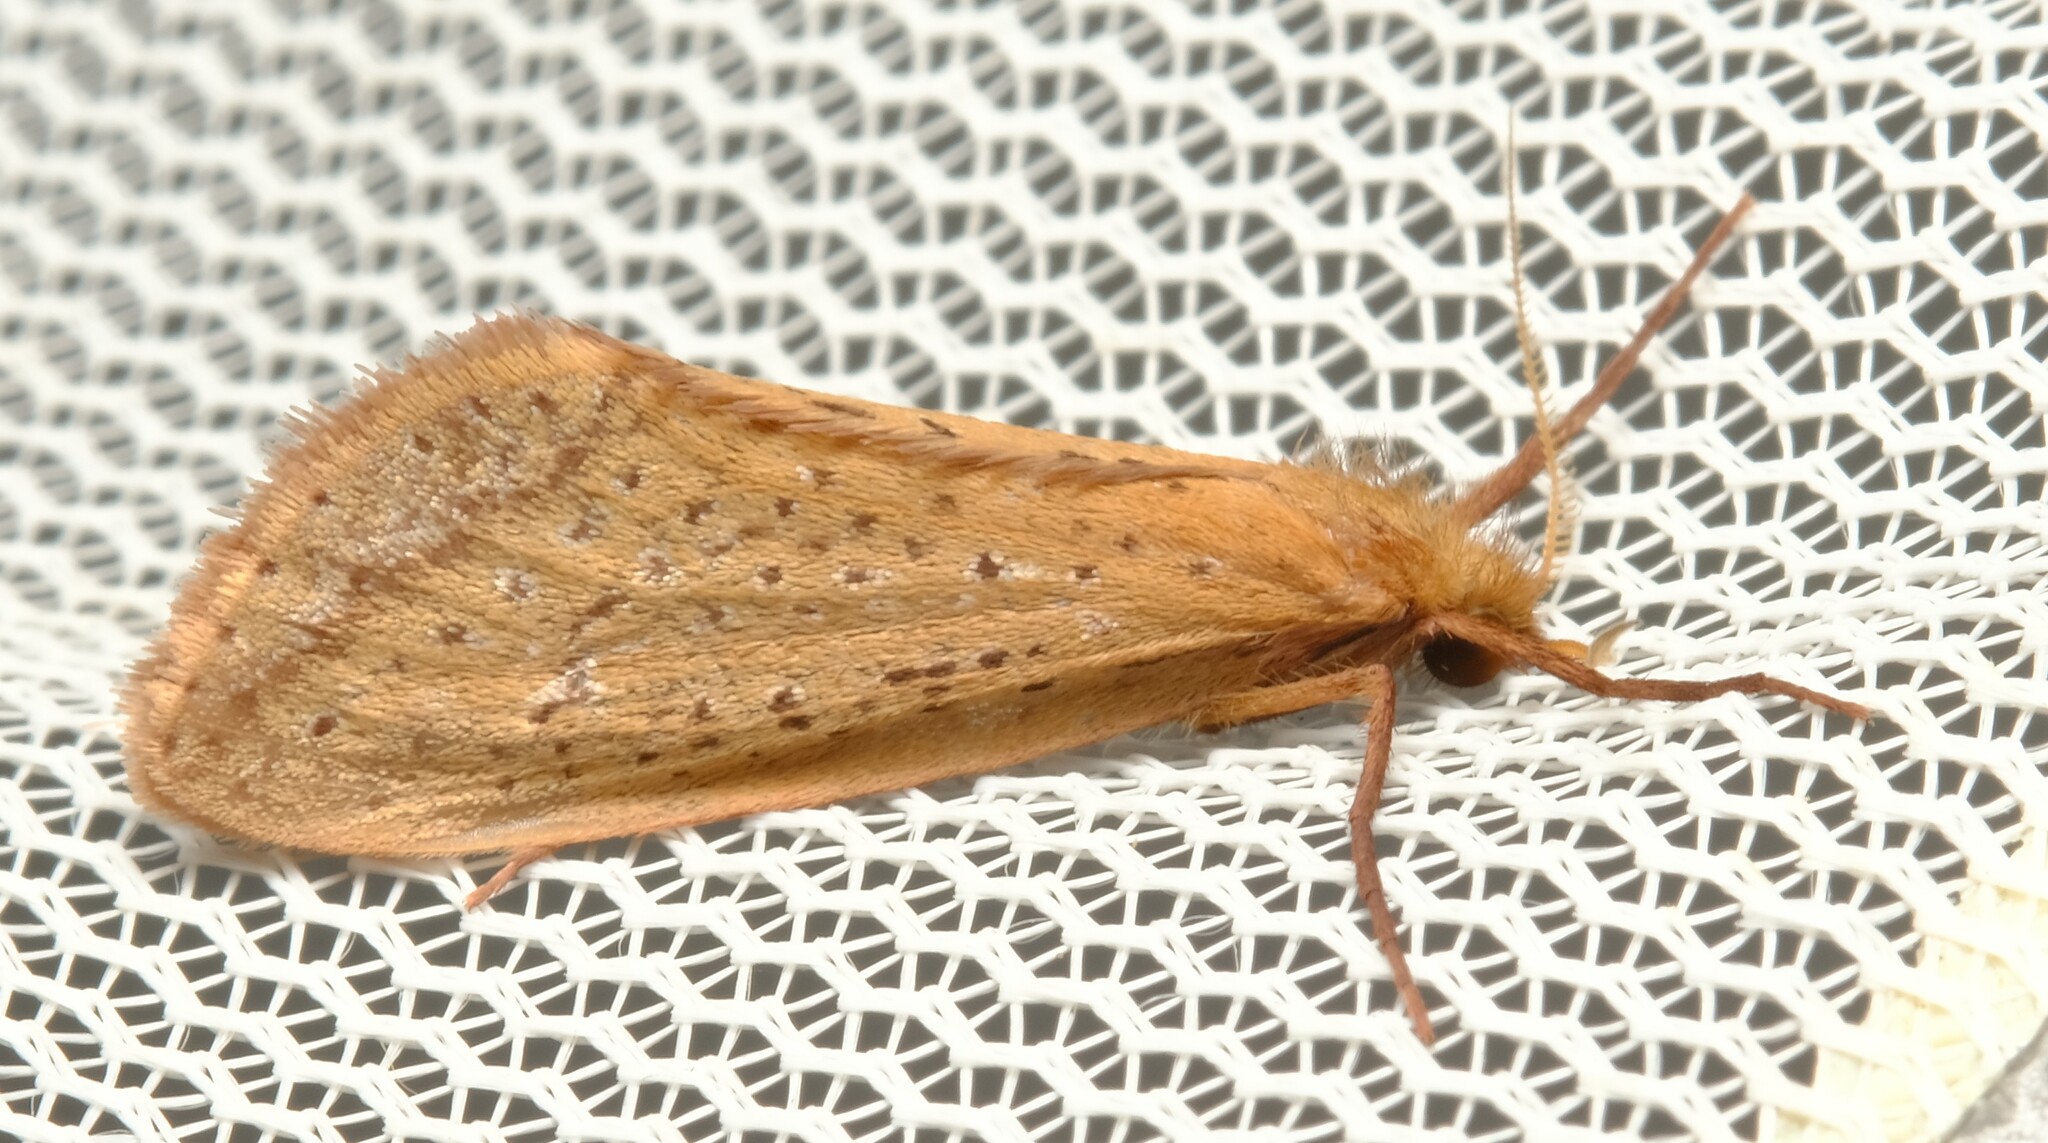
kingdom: Animalia
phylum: Arthropoda
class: Insecta
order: Lepidoptera
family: Hepialidae
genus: Fraus
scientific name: Fraus nanus
